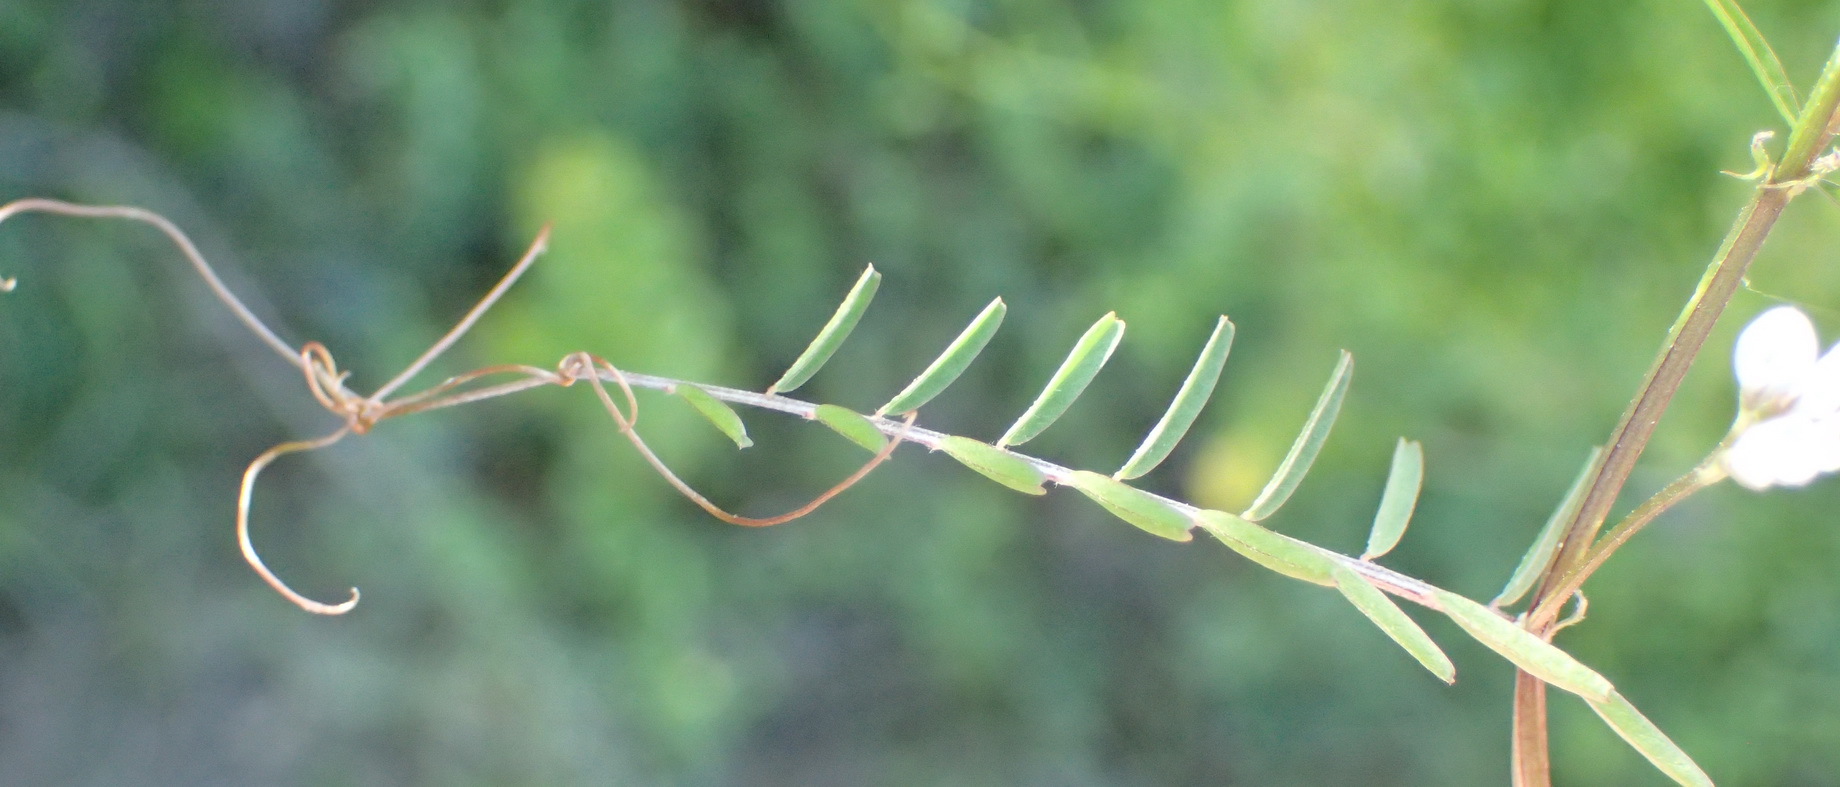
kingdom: Plantae
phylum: Tracheophyta
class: Magnoliopsida
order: Fabales
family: Fabaceae
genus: Vicia
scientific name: Vicia hirsuta
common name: Tiny vetch
